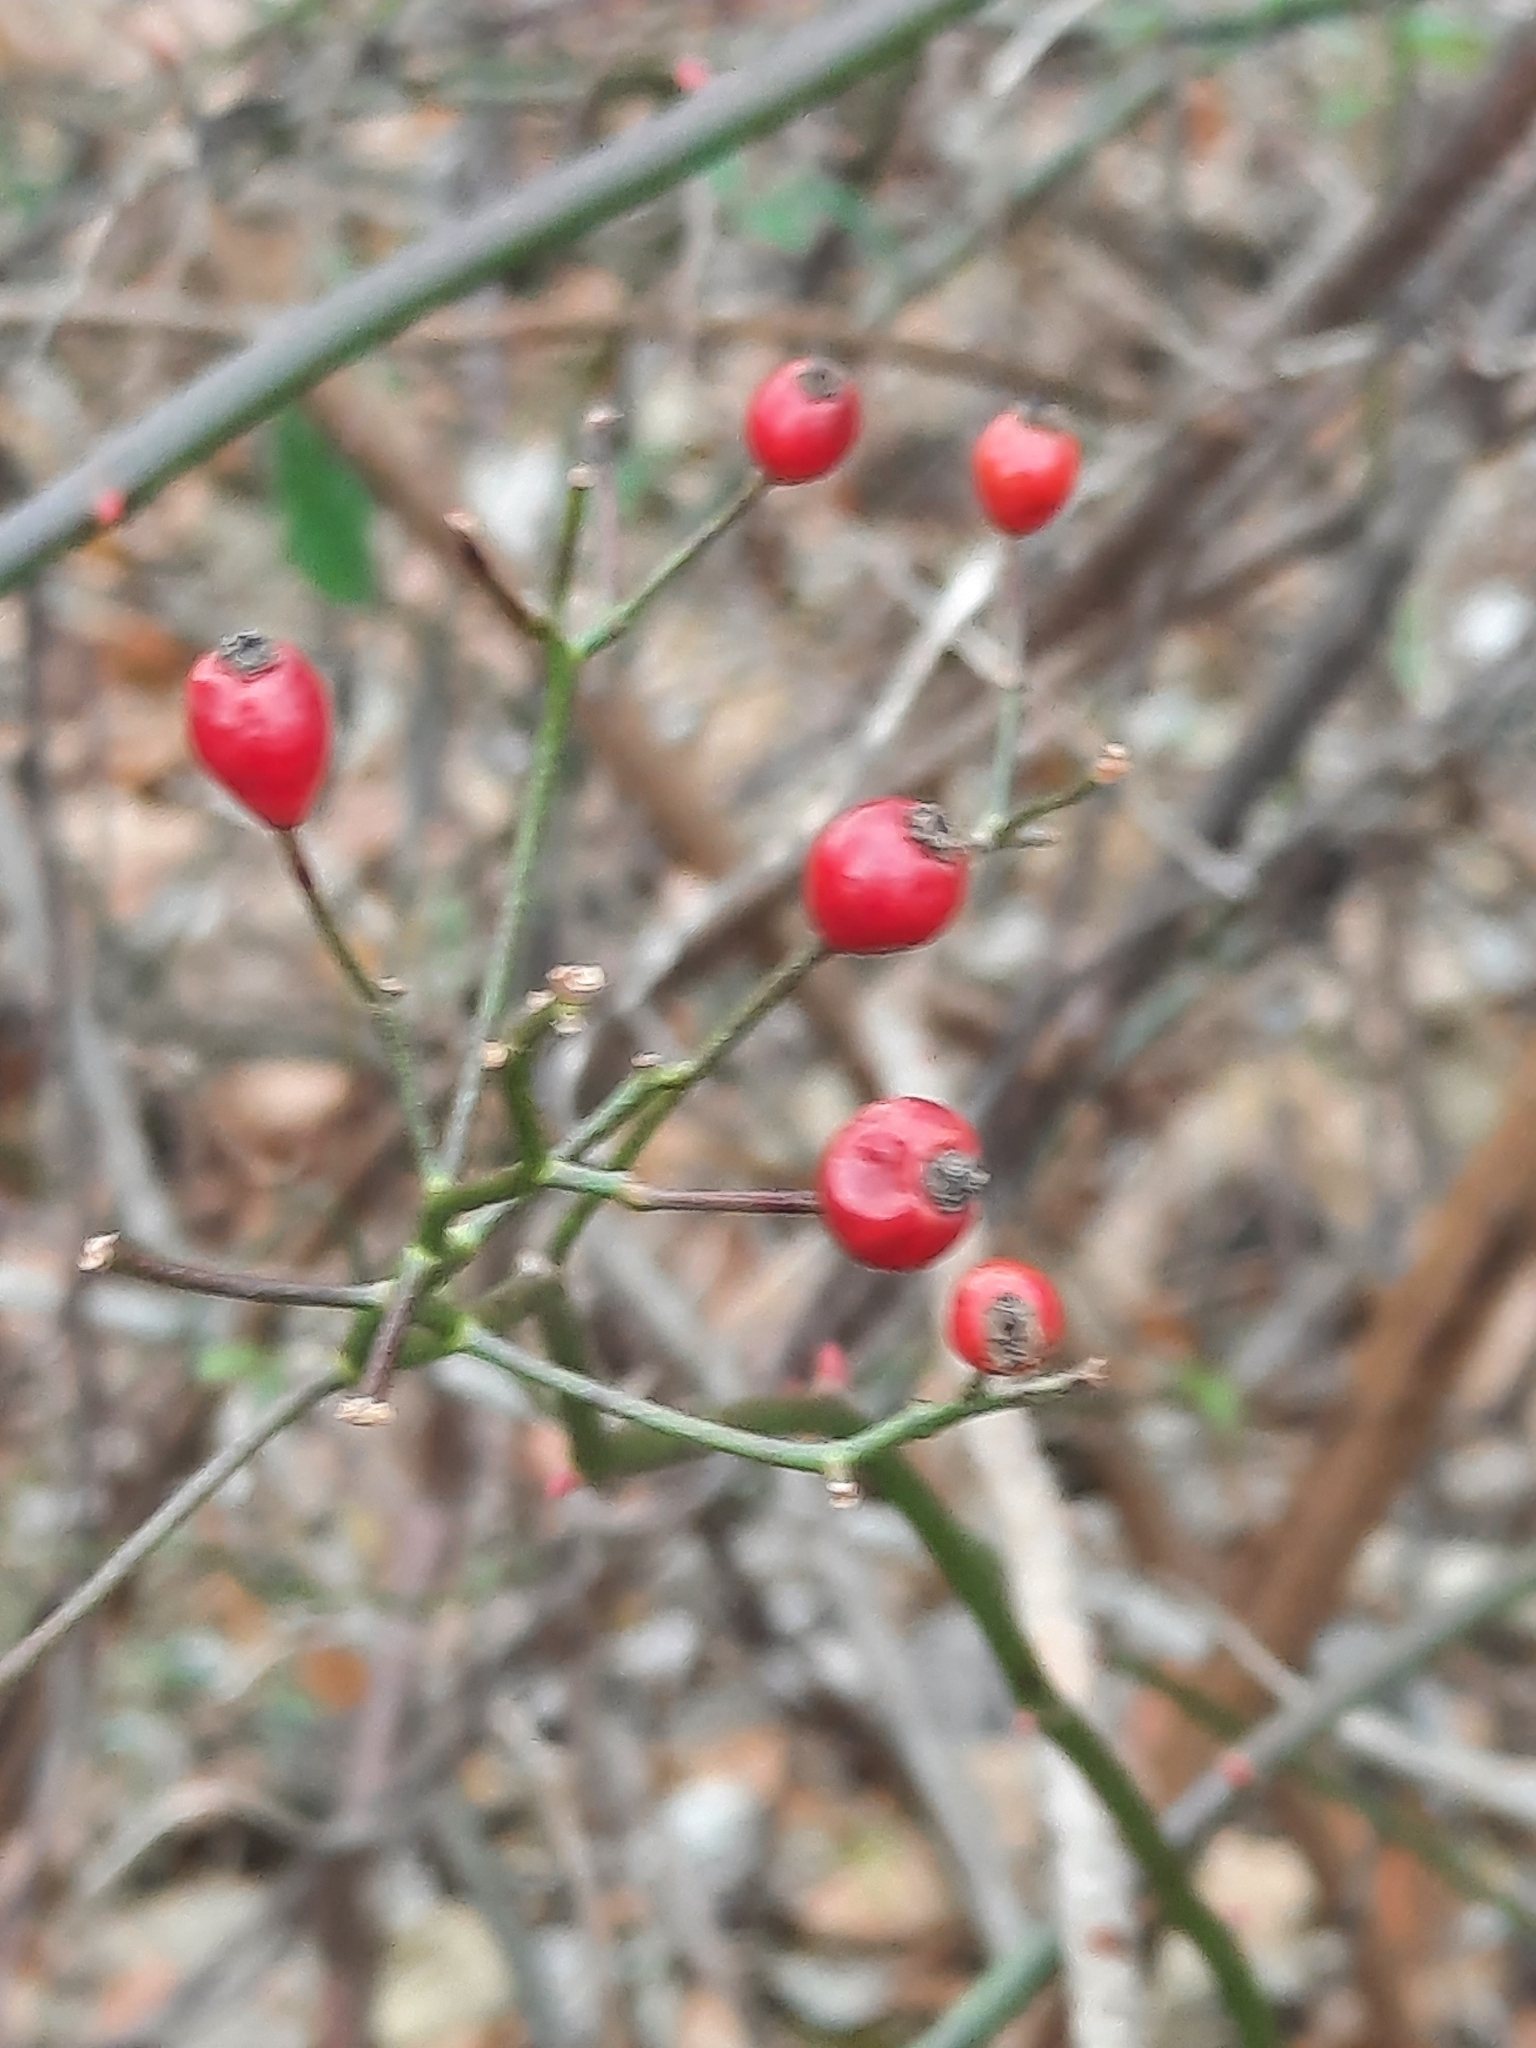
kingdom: Plantae
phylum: Tracheophyta
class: Magnoliopsida
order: Rosales
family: Rosaceae
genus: Rosa
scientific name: Rosa multiflora
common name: Multiflora rose
